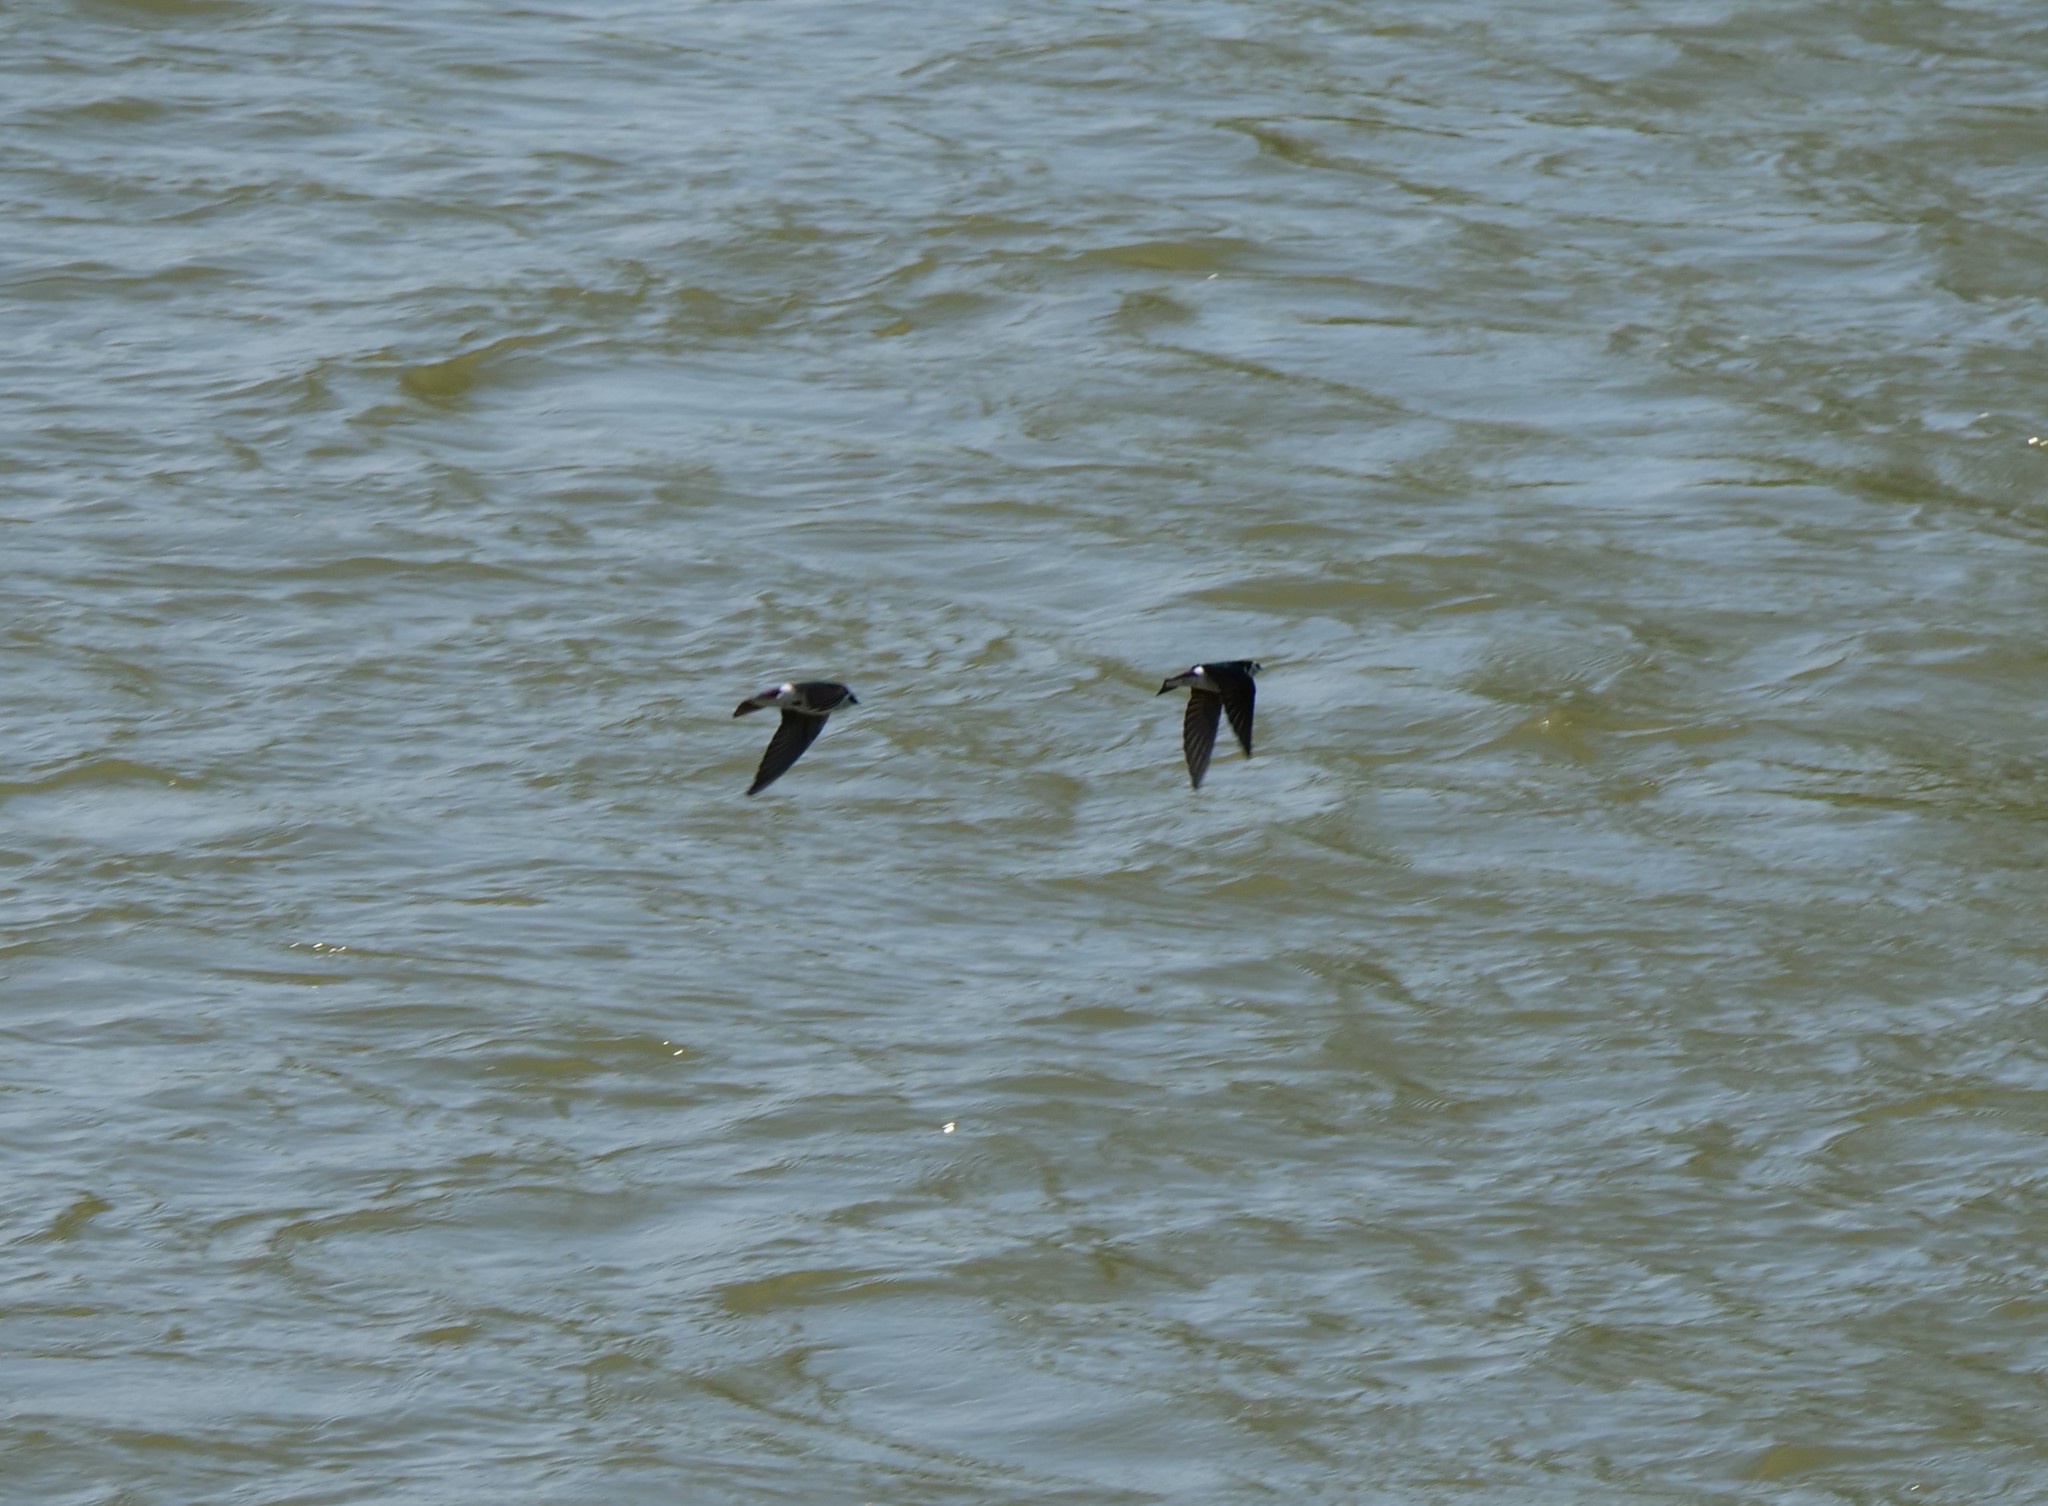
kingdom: Animalia
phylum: Chordata
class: Aves
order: Passeriformes
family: Hirundinidae
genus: Tachycineta
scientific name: Tachycineta thalassina
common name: Violet-green swallow
